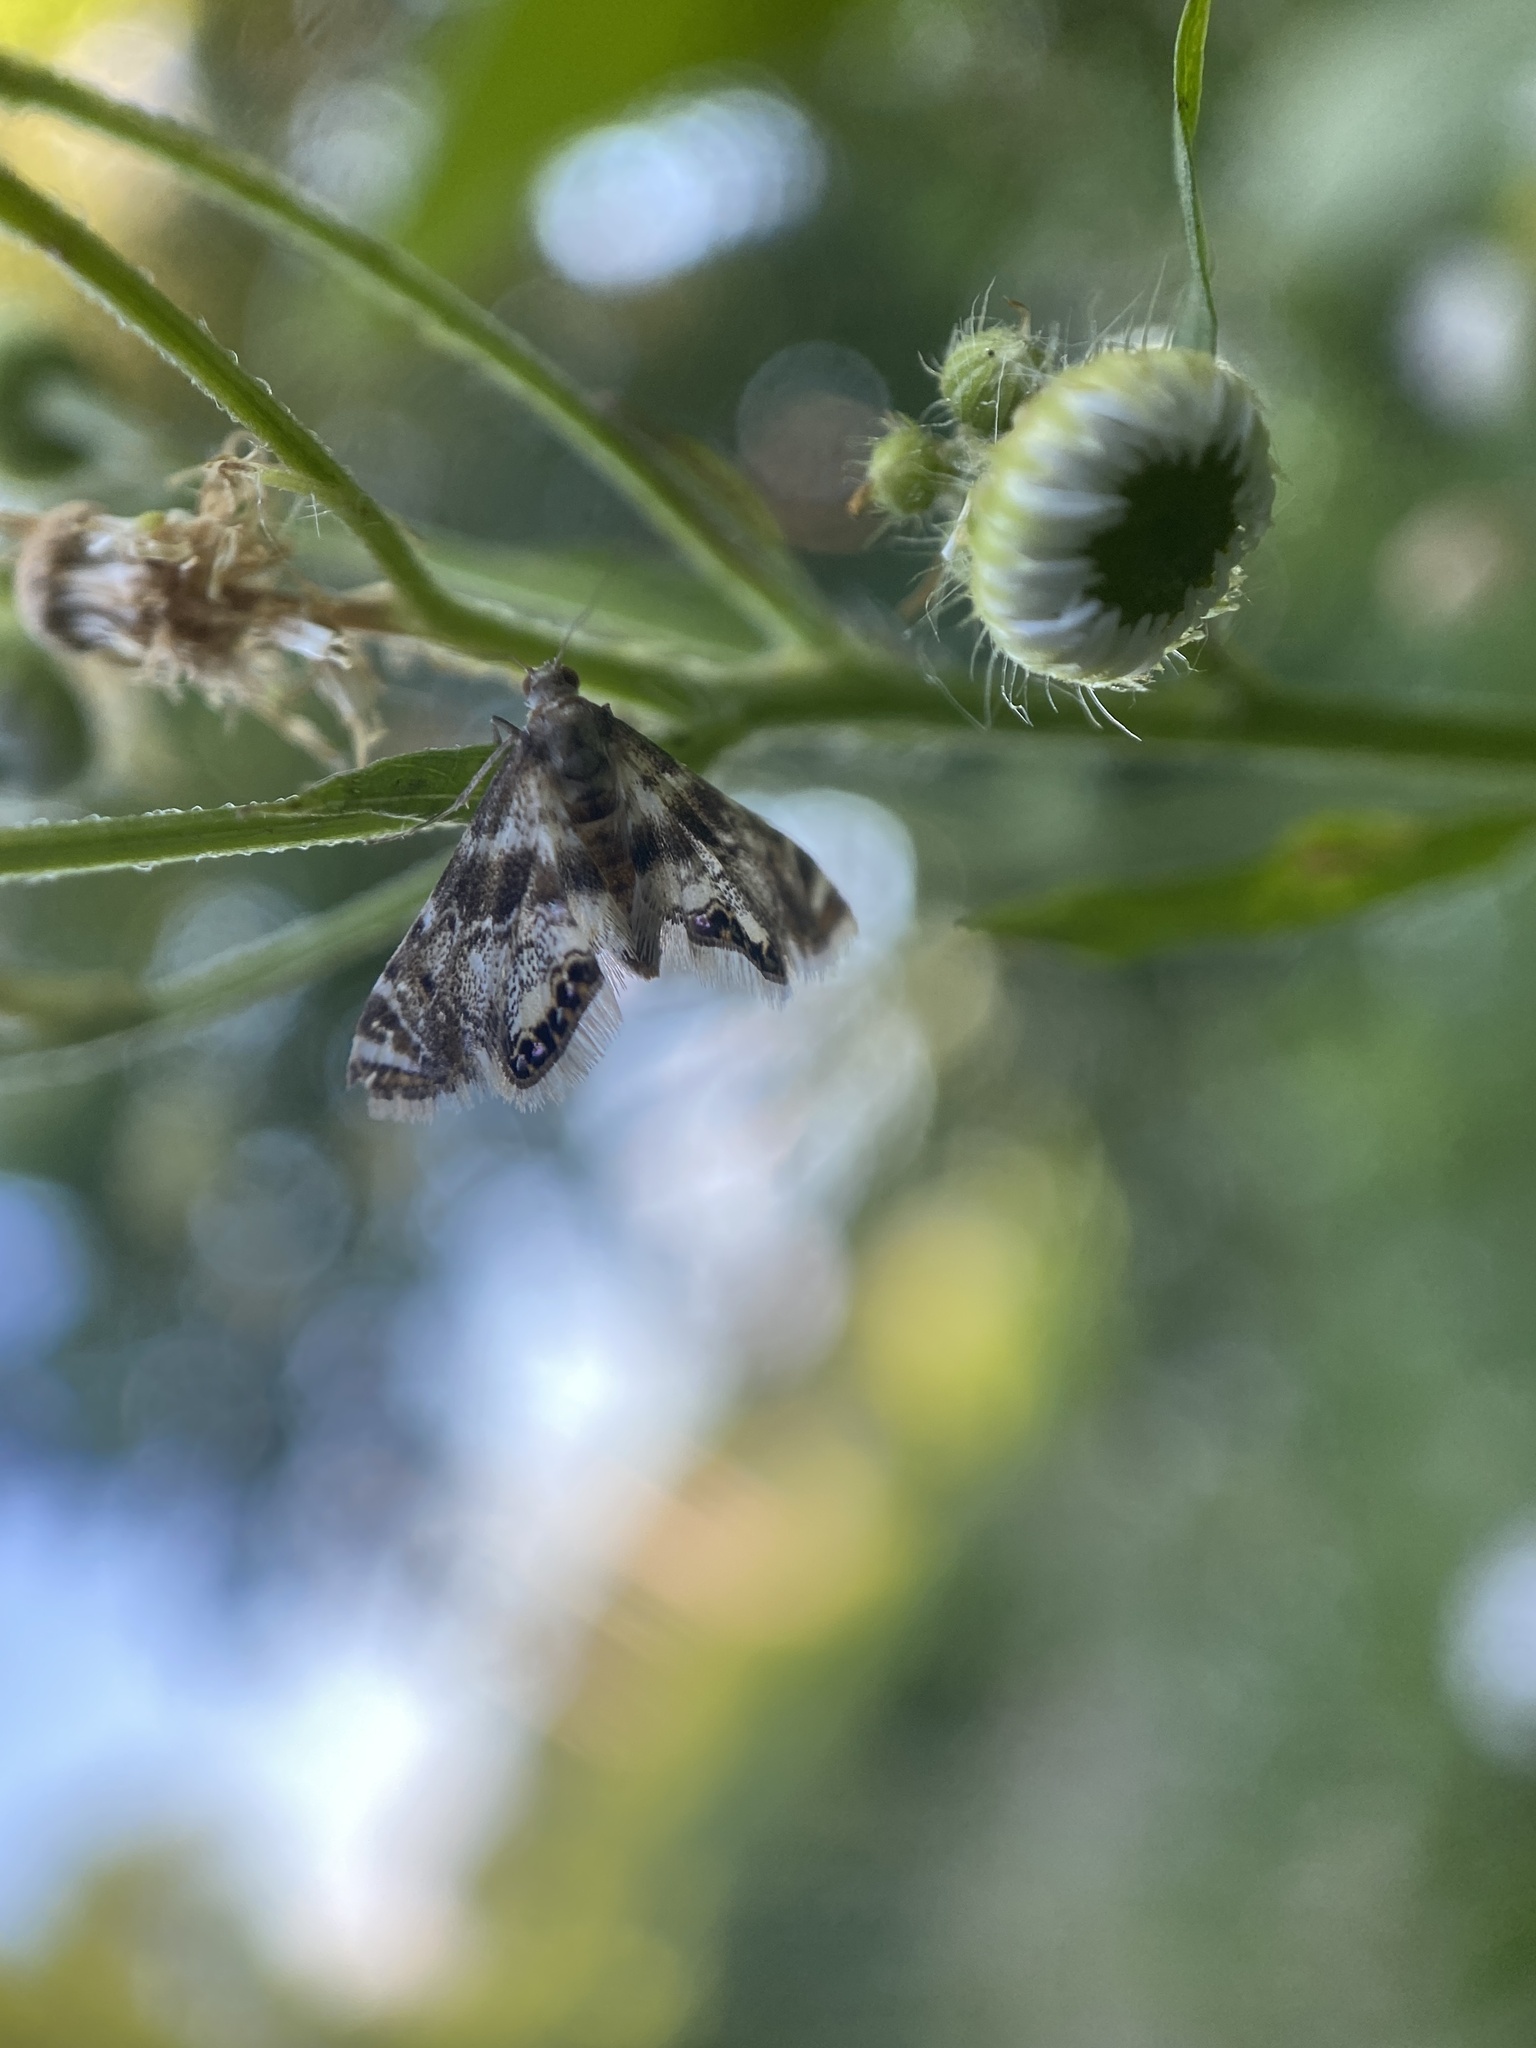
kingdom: Animalia
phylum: Arthropoda
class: Insecta
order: Lepidoptera
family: Crambidae
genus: Petrophila
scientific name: Petrophila fulicalis
